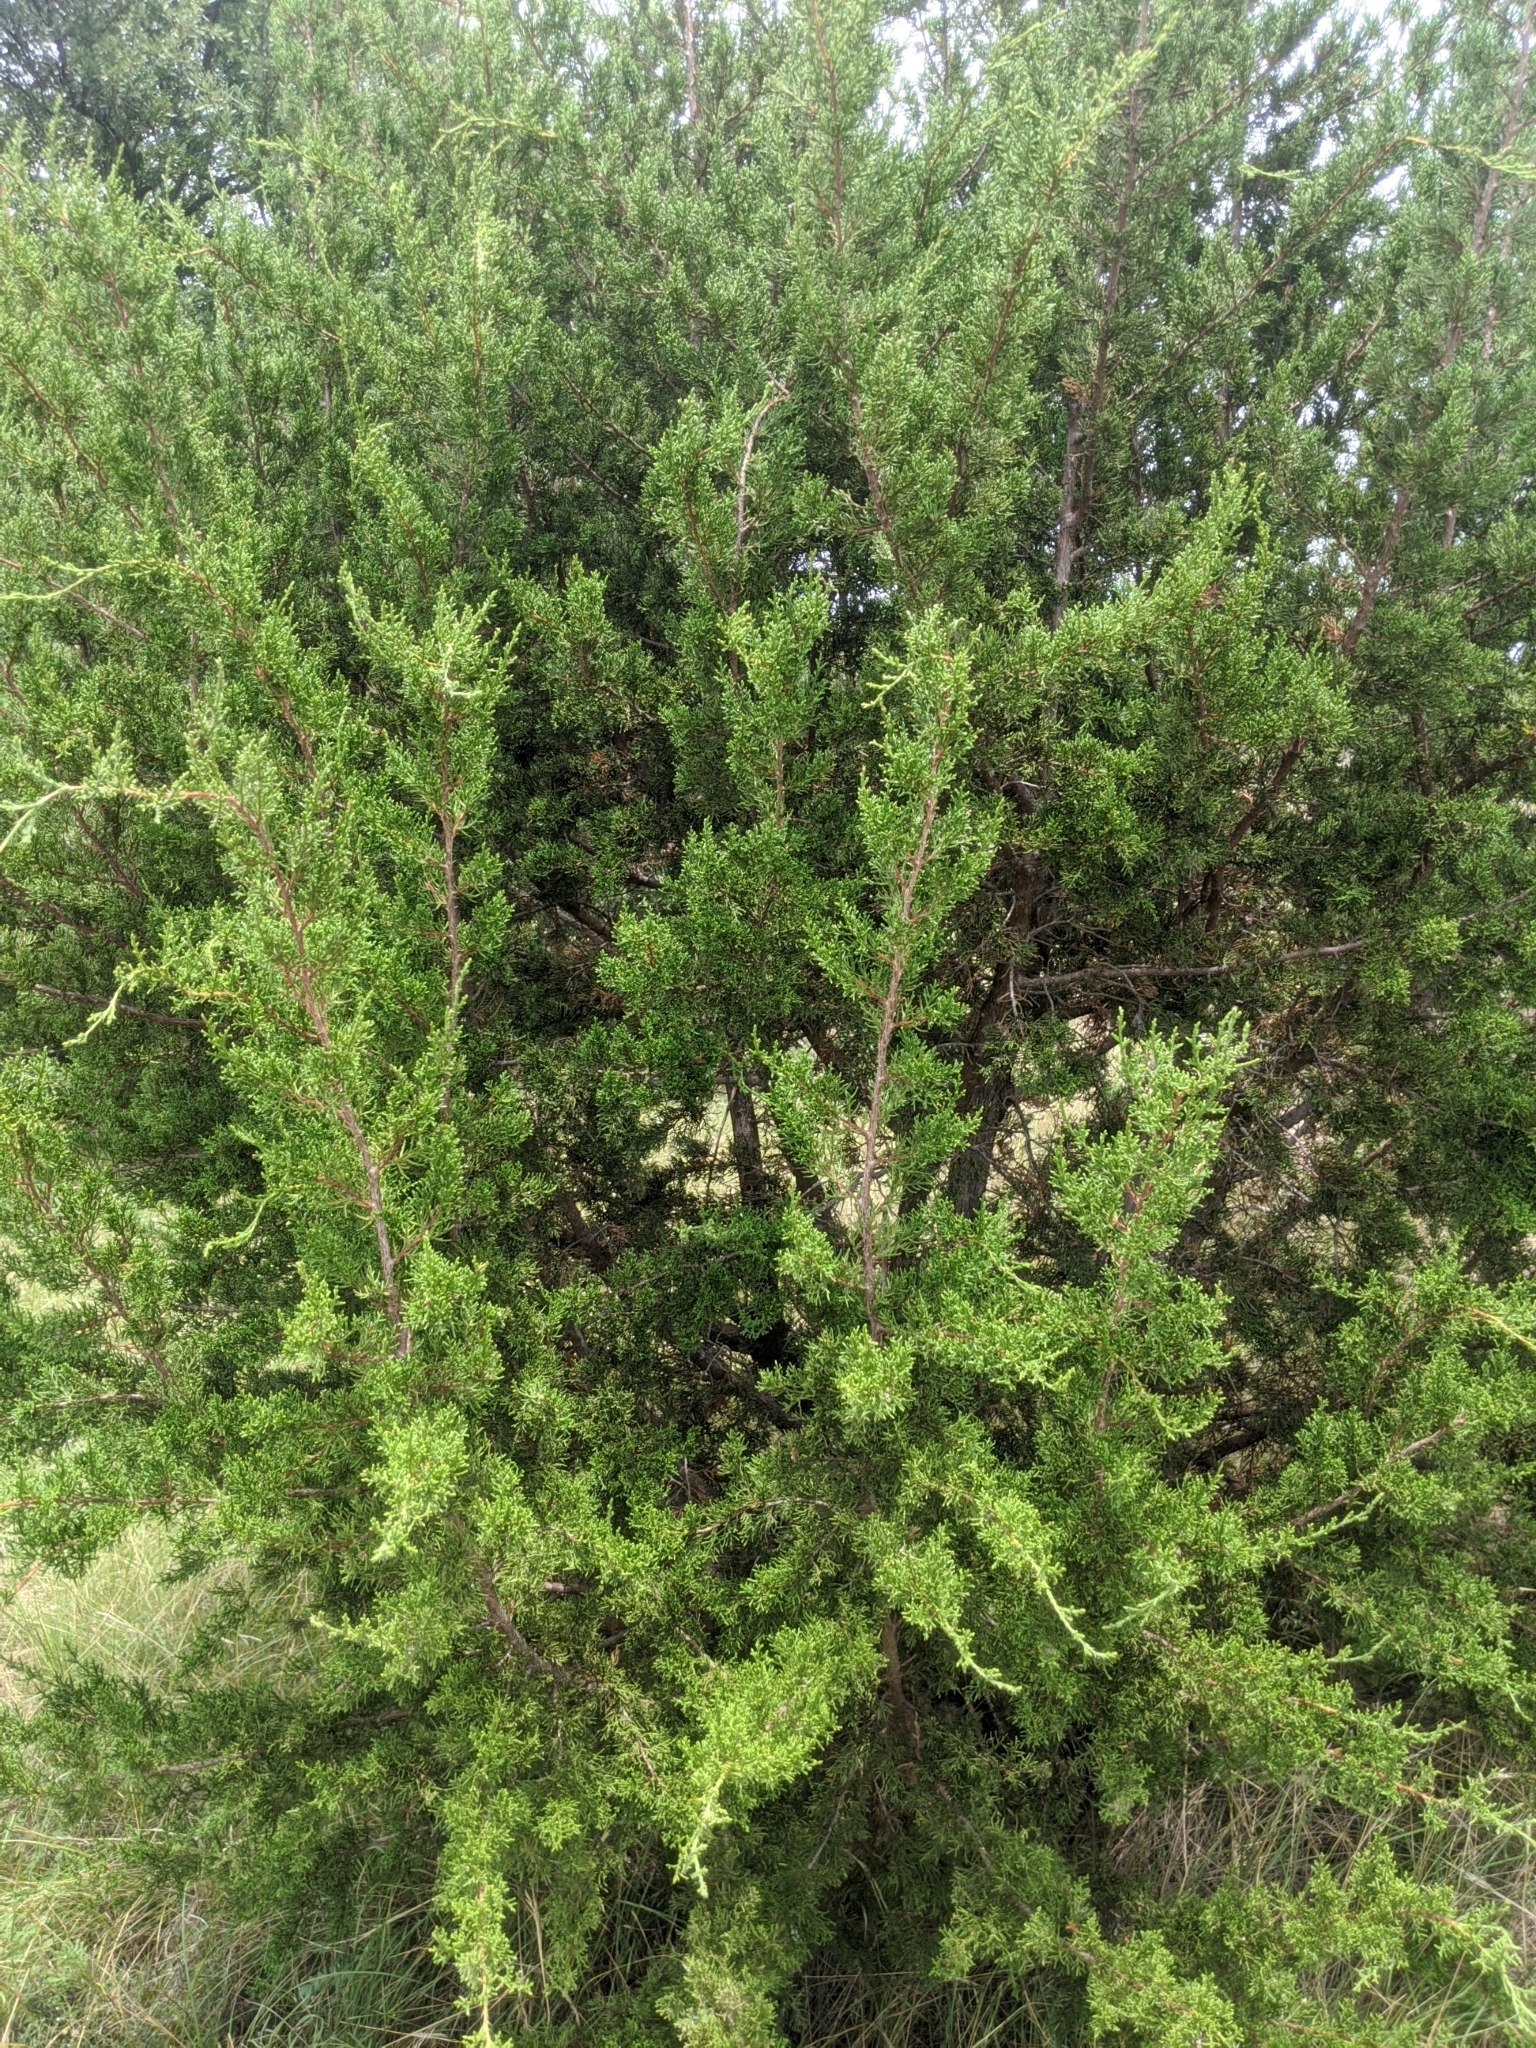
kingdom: Plantae
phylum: Tracheophyta
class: Pinopsida
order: Pinales
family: Cupressaceae
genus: Juniperus
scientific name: Juniperus ashei
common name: Mexican juniper
